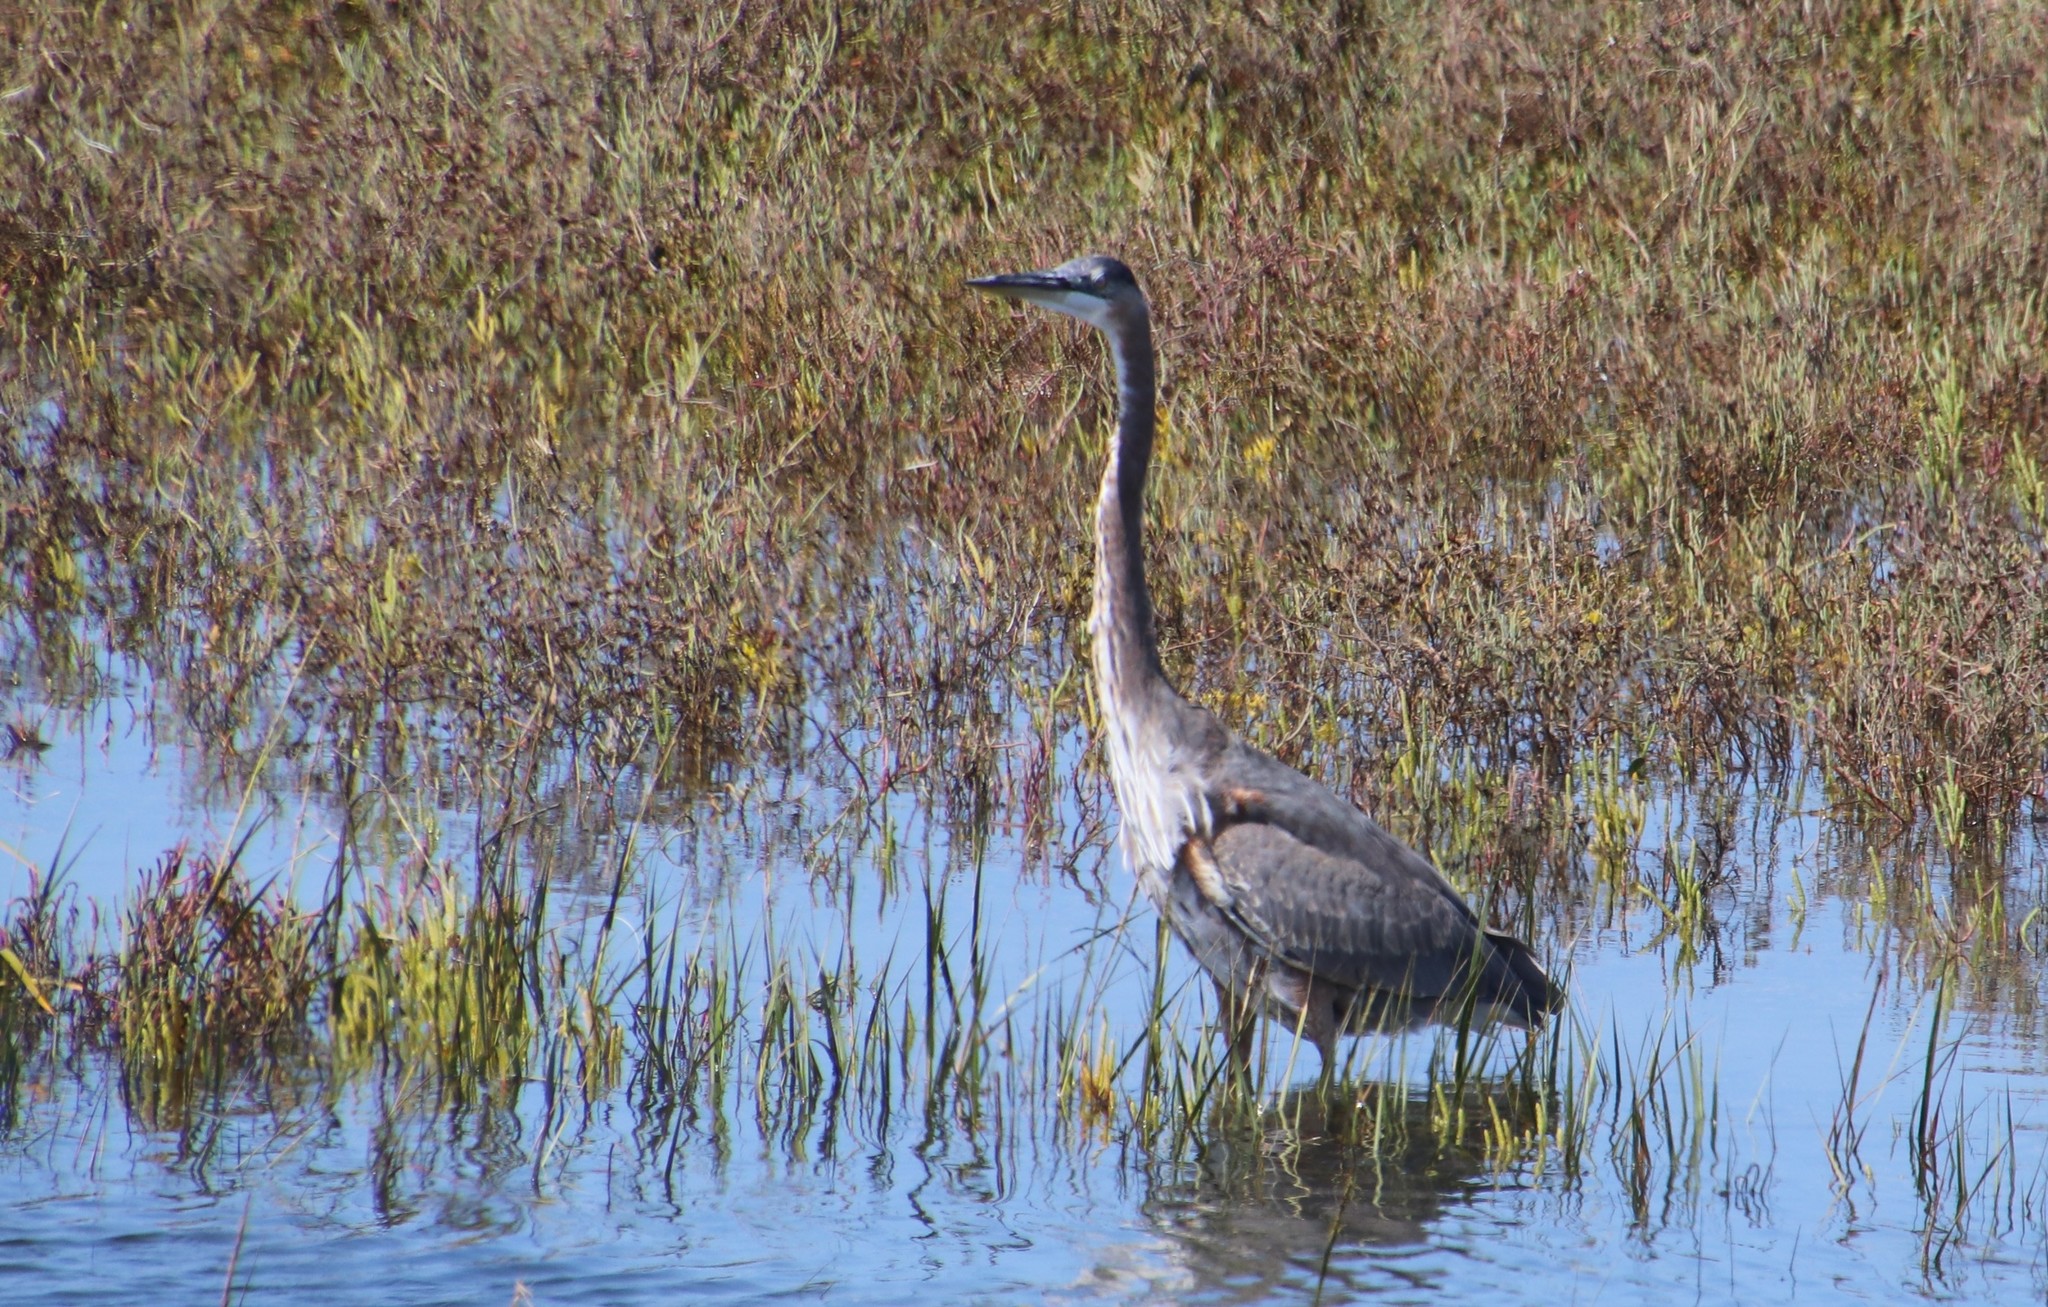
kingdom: Animalia
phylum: Chordata
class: Aves
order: Pelecaniformes
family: Ardeidae
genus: Ardea
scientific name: Ardea herodias
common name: Great blue heron
